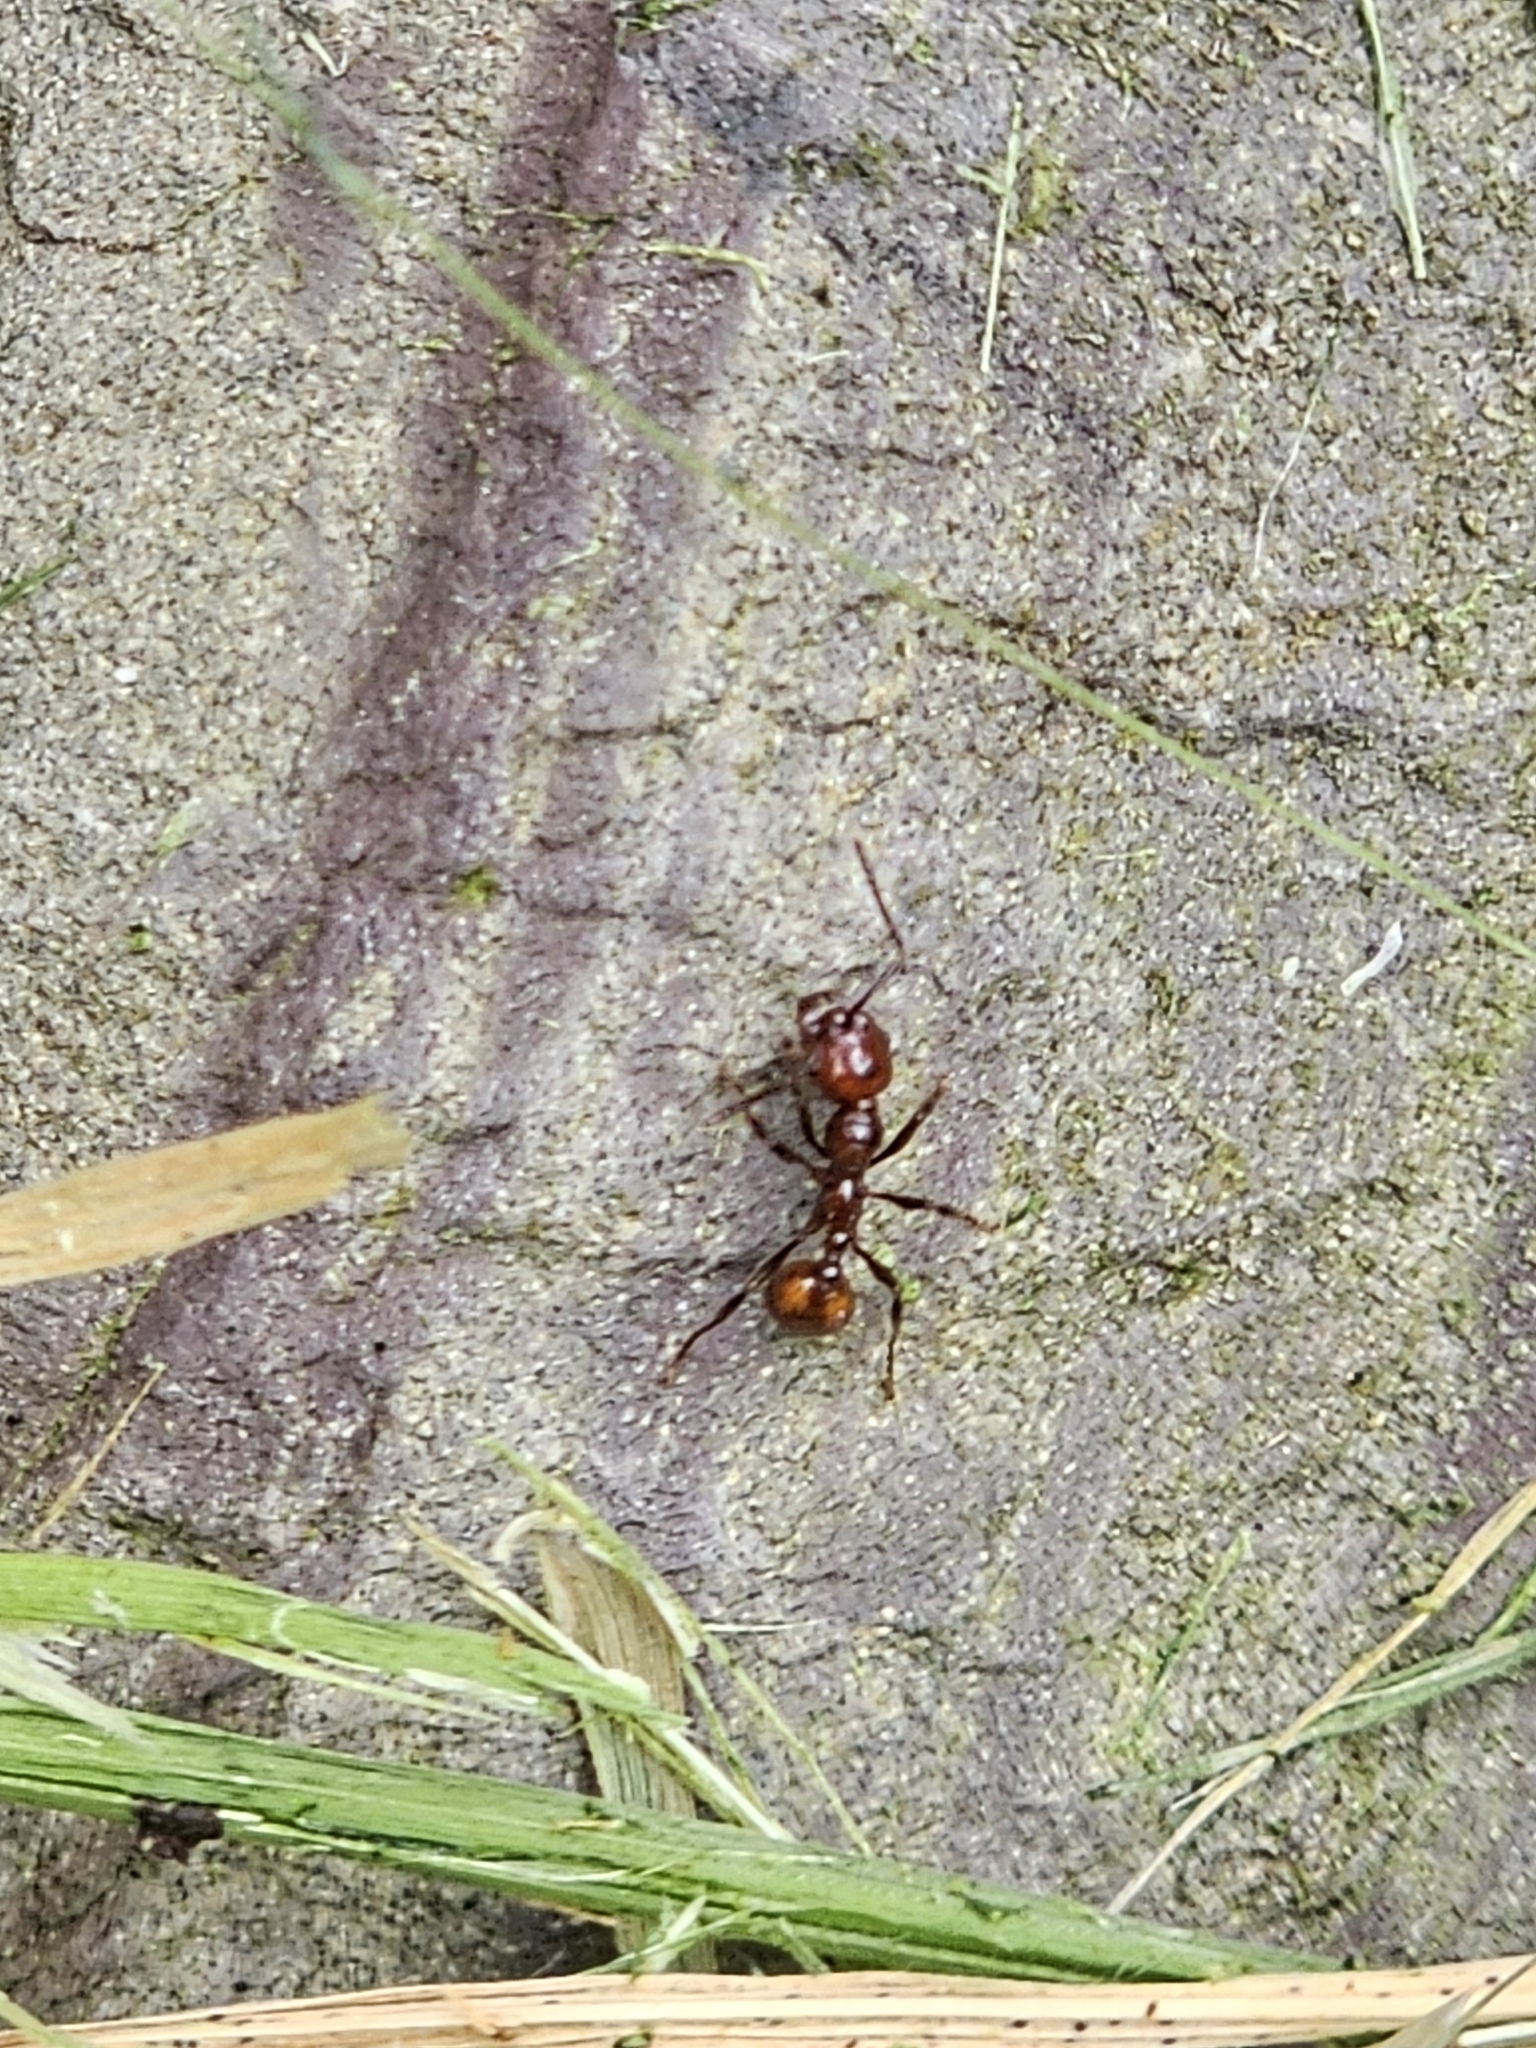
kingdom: Animalia
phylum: Arthropoda
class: Insecta
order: Hymenoptera
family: Formicidae
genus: Huberia
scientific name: Huberia striata
